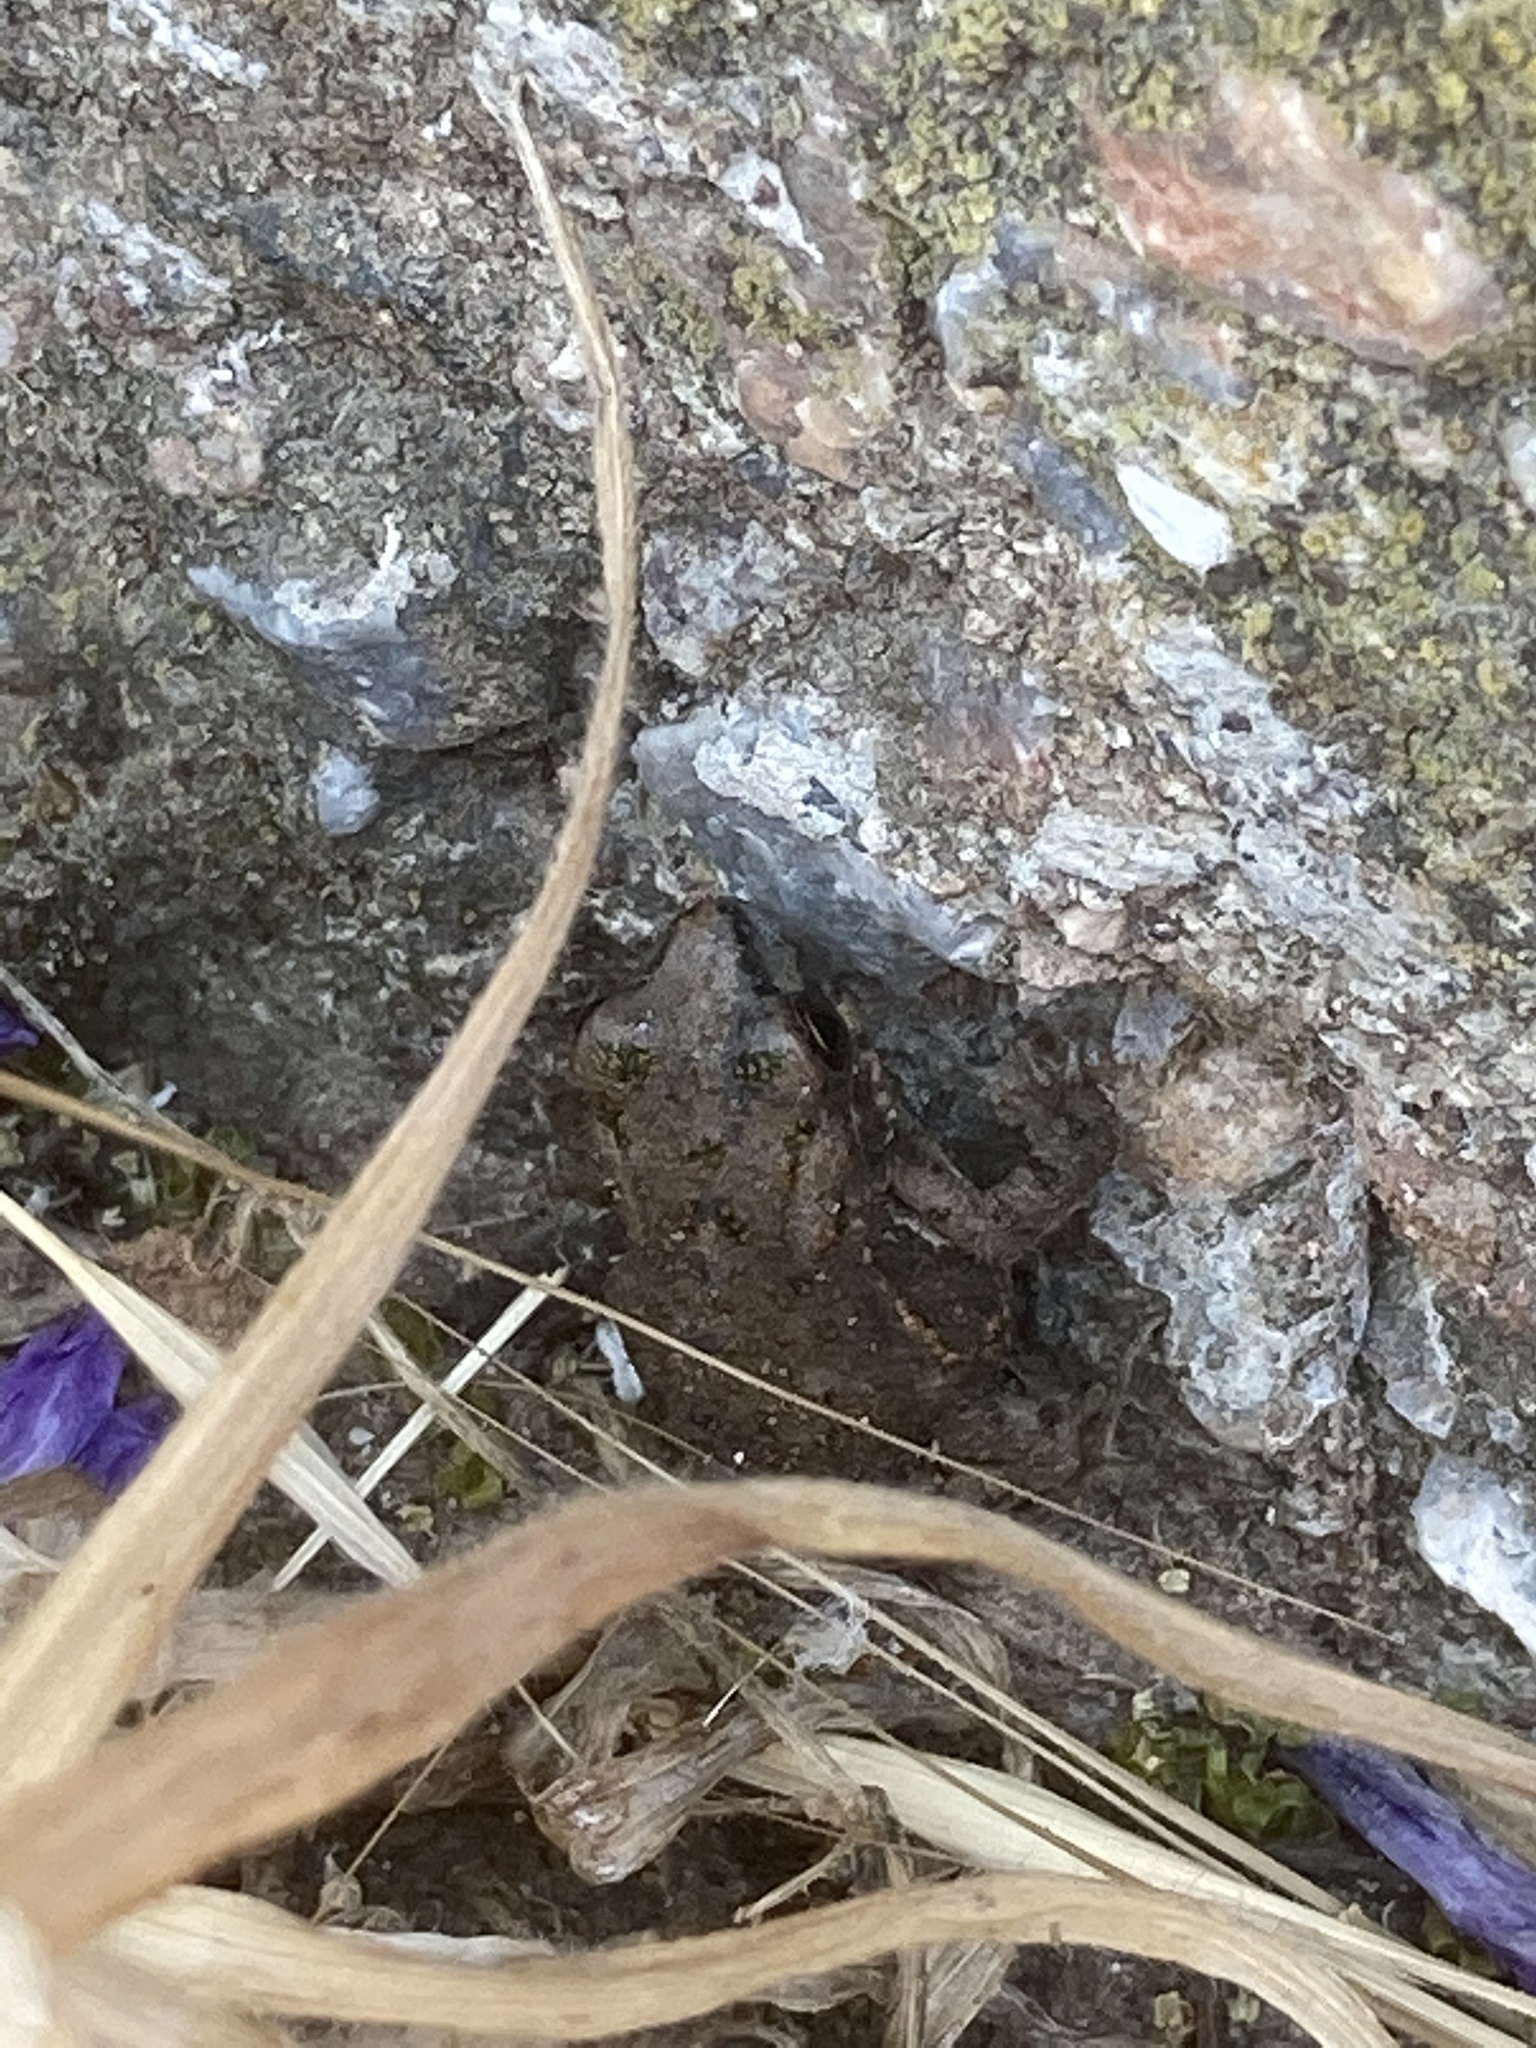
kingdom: Animalia
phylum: Chordata
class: Amphibia
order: Anura
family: Bufonidae
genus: Bufotes
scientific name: Bufotes viridis
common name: European green toad
